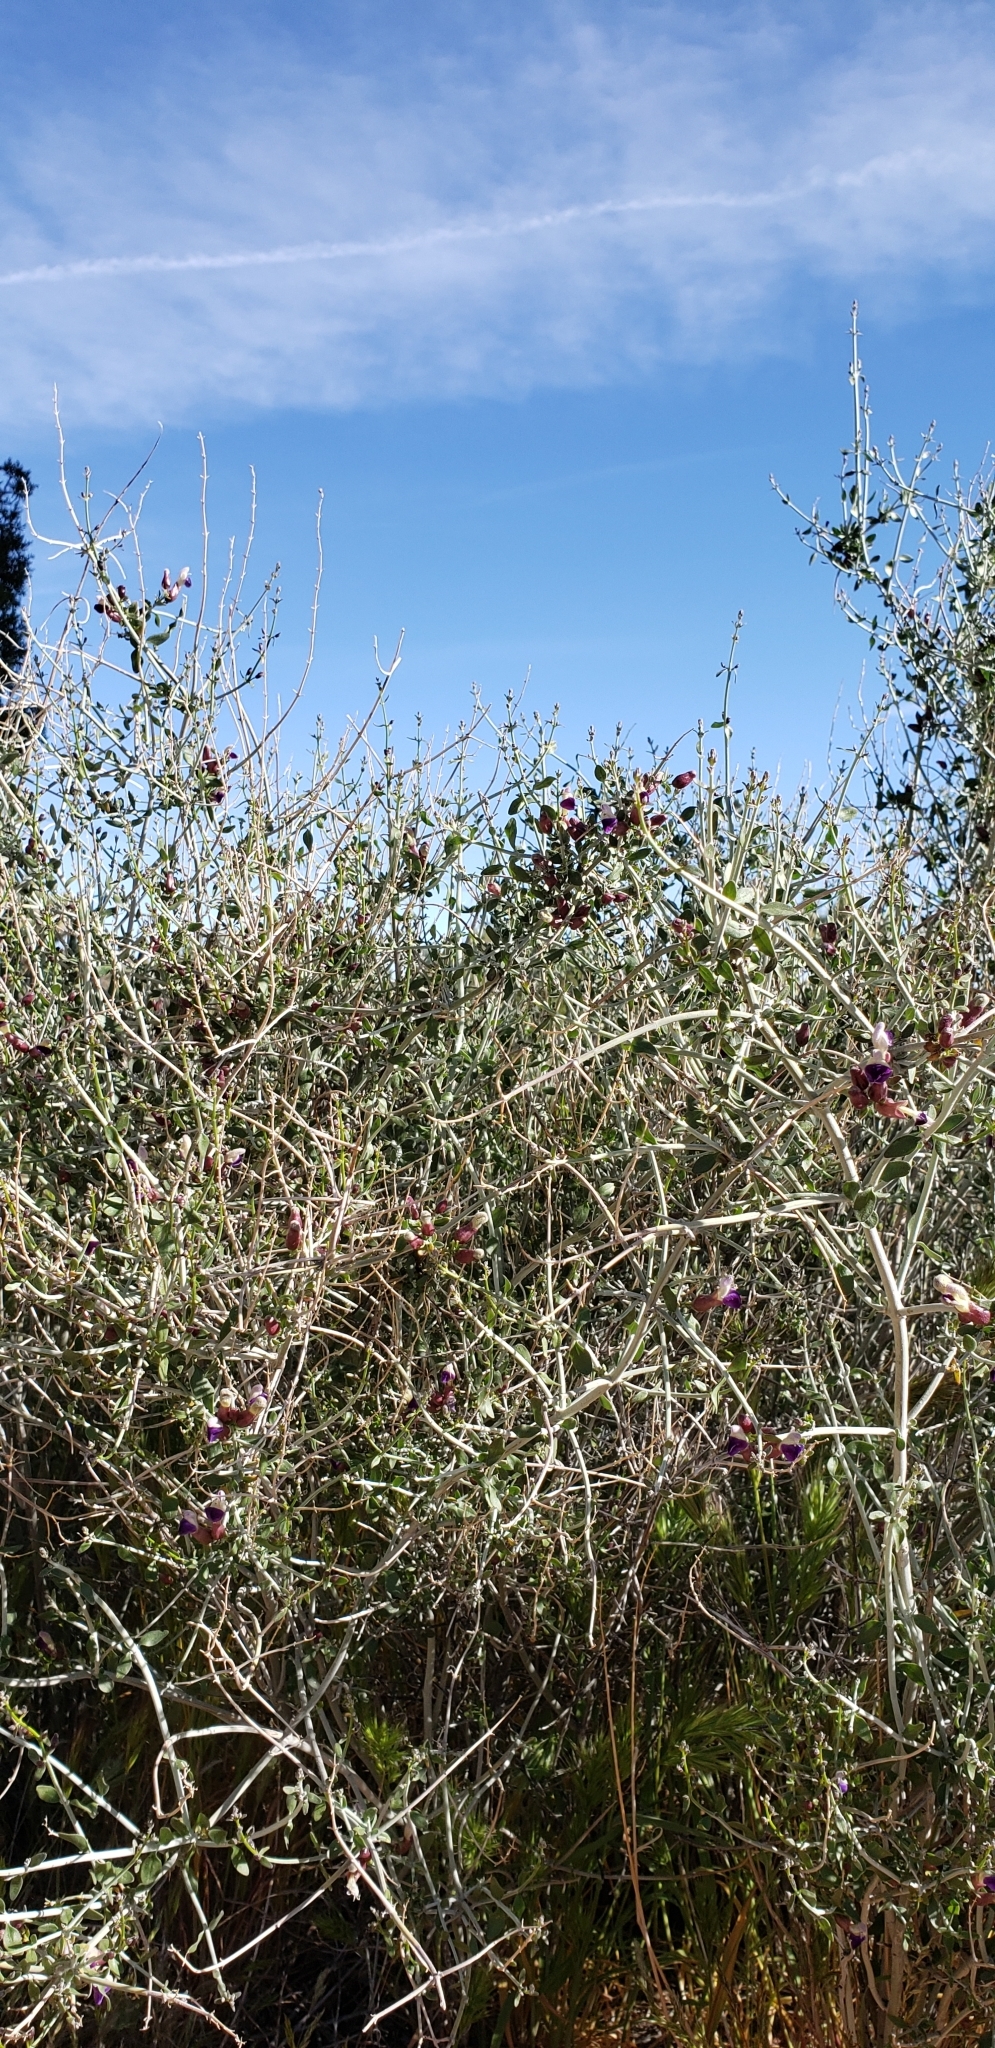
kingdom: Plantae
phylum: Tracheophyta
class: Magnoliopsida
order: Lamiales
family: Lamiaceae
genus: Scutellaria
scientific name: Scutellaria mexicana
